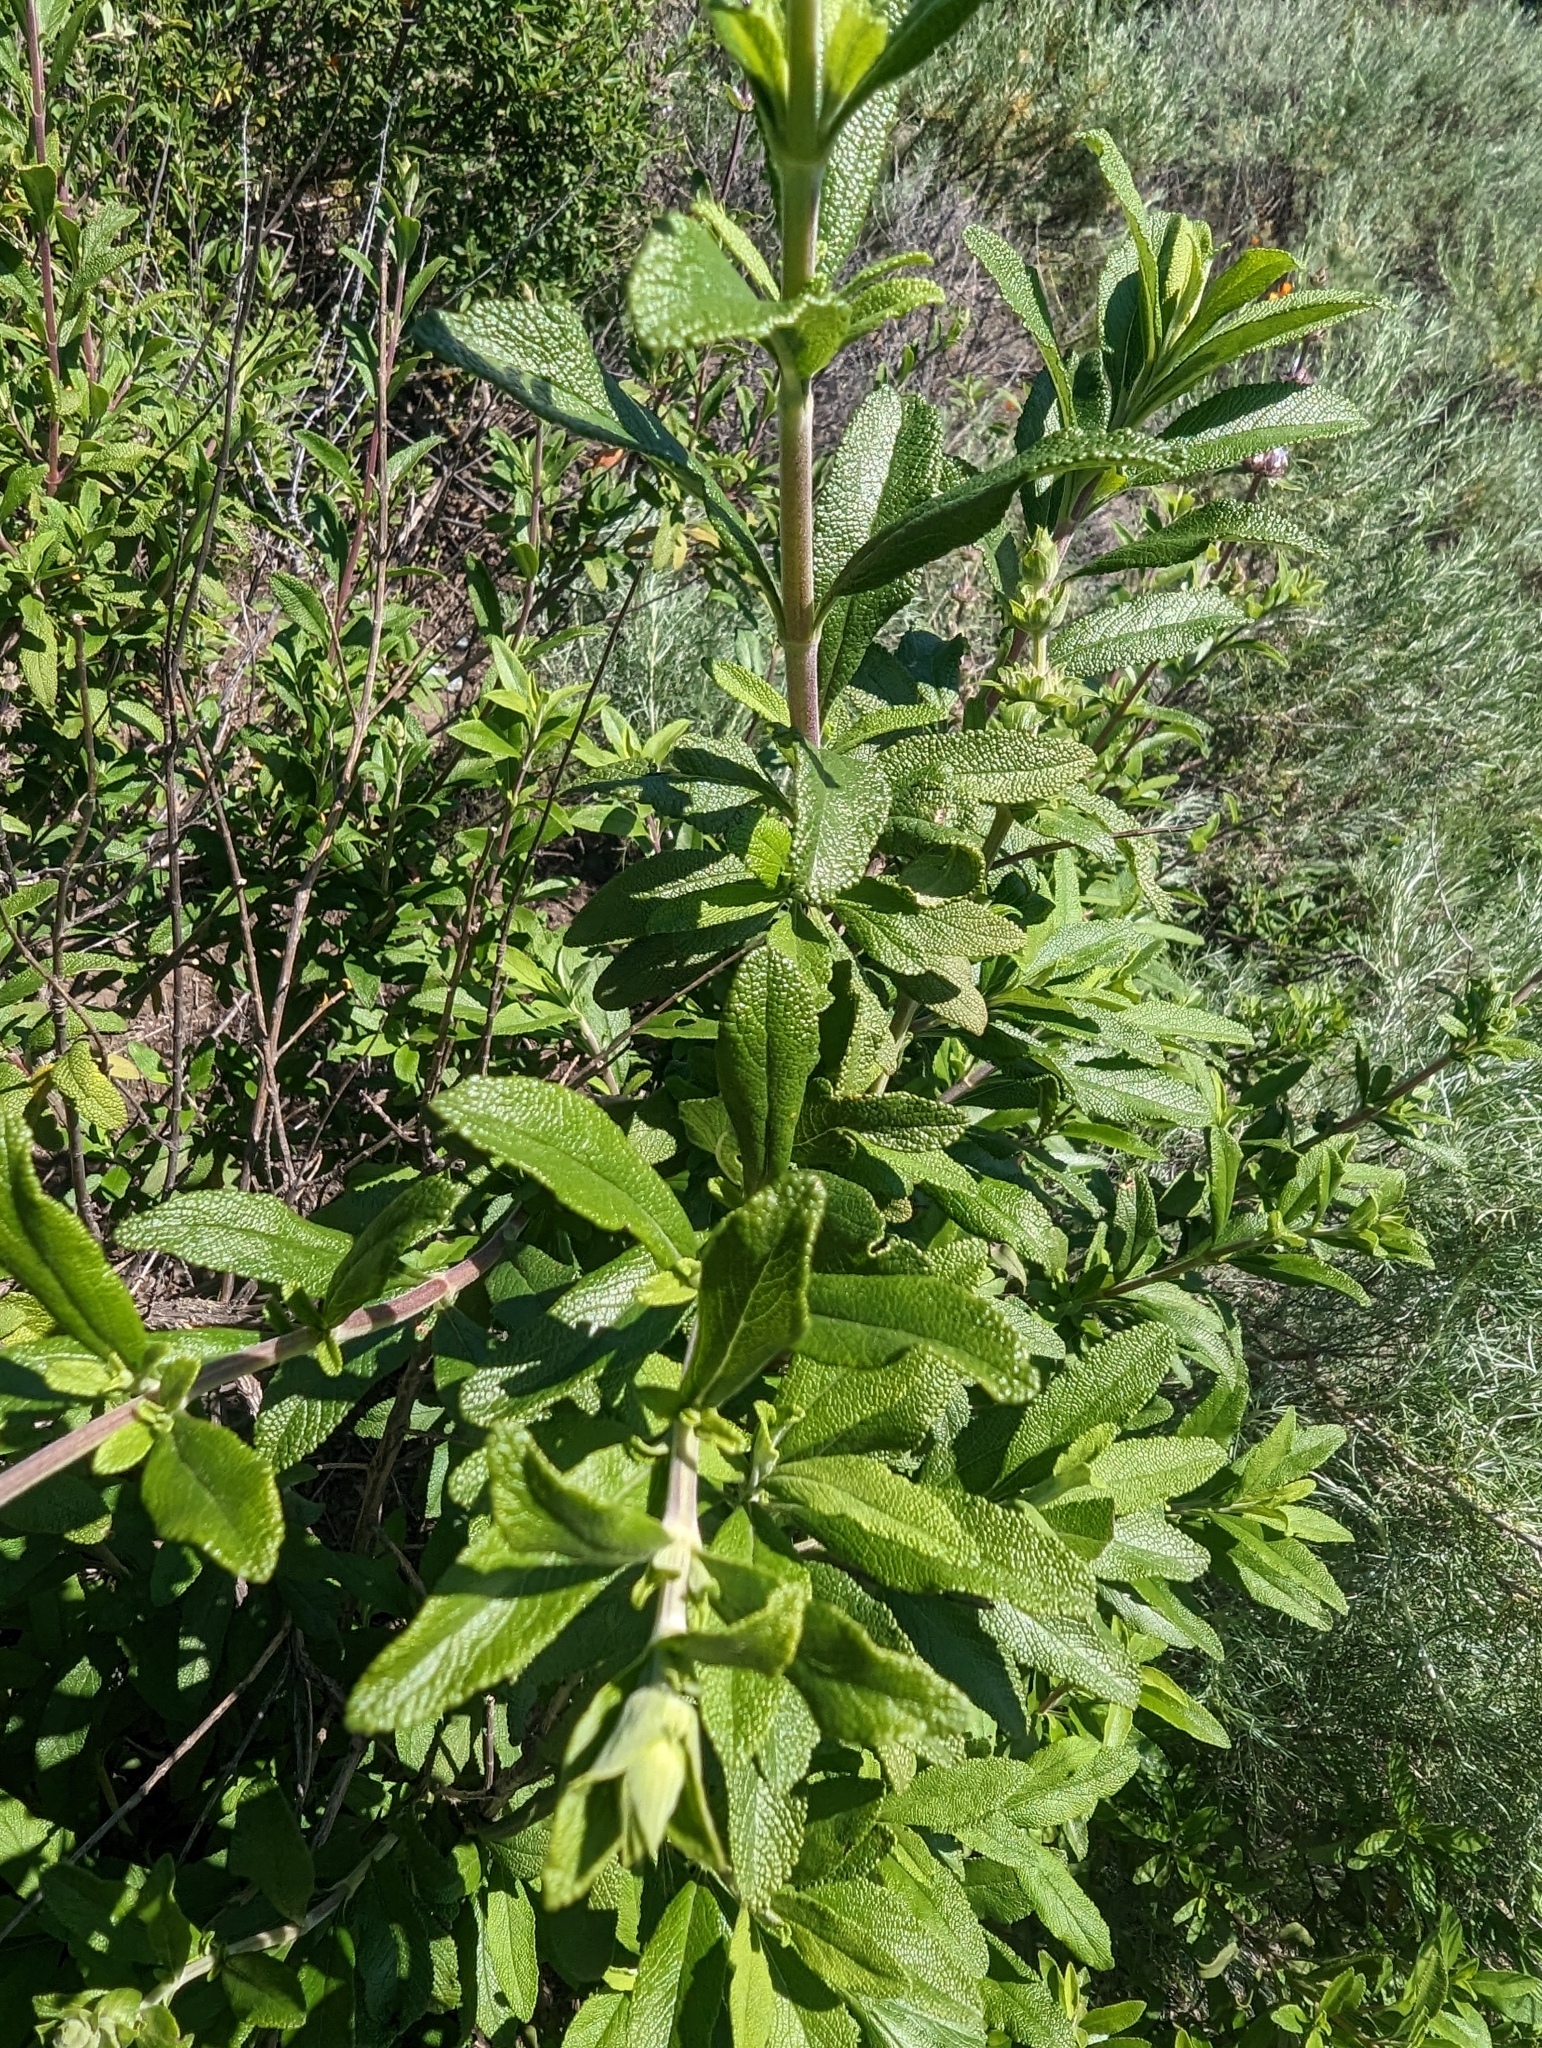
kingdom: Plantae
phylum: Tracheophyta
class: Magnoliopsida
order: Lamiales
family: Lamiaceae
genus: Salvia
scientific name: Salvia mellifera
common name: Black sage
